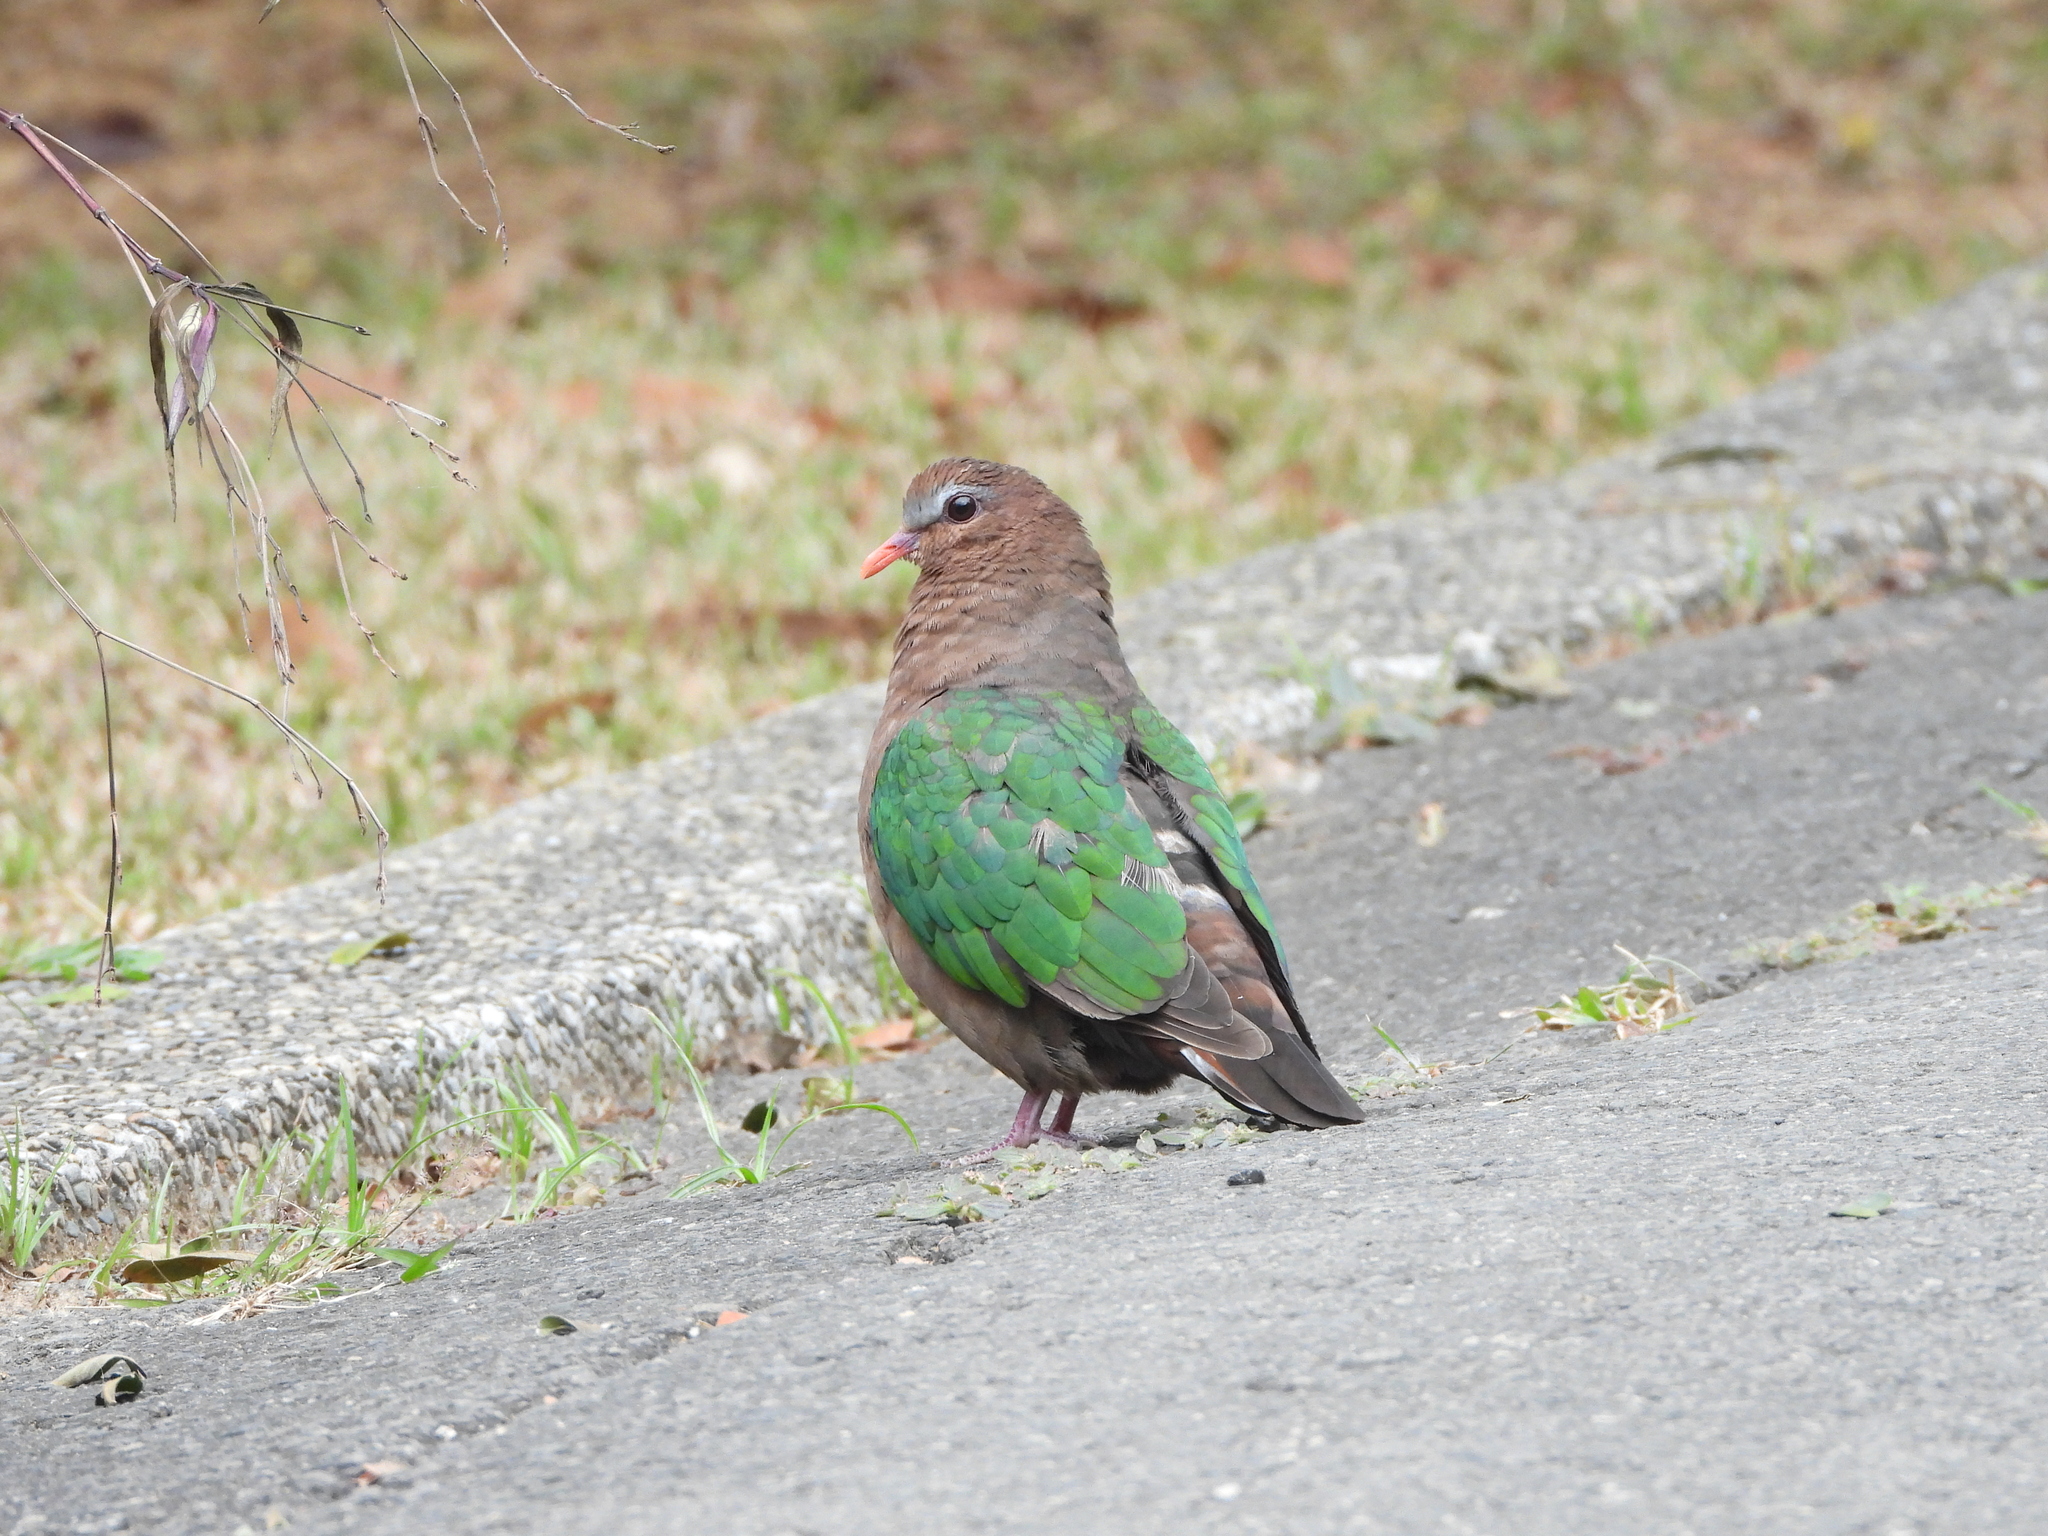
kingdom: Animalia
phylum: Chordata
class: Aves
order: Columbiformes
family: Columbidae
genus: Chalcophaps
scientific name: Chalcophaps indica
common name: Common emerald dove
